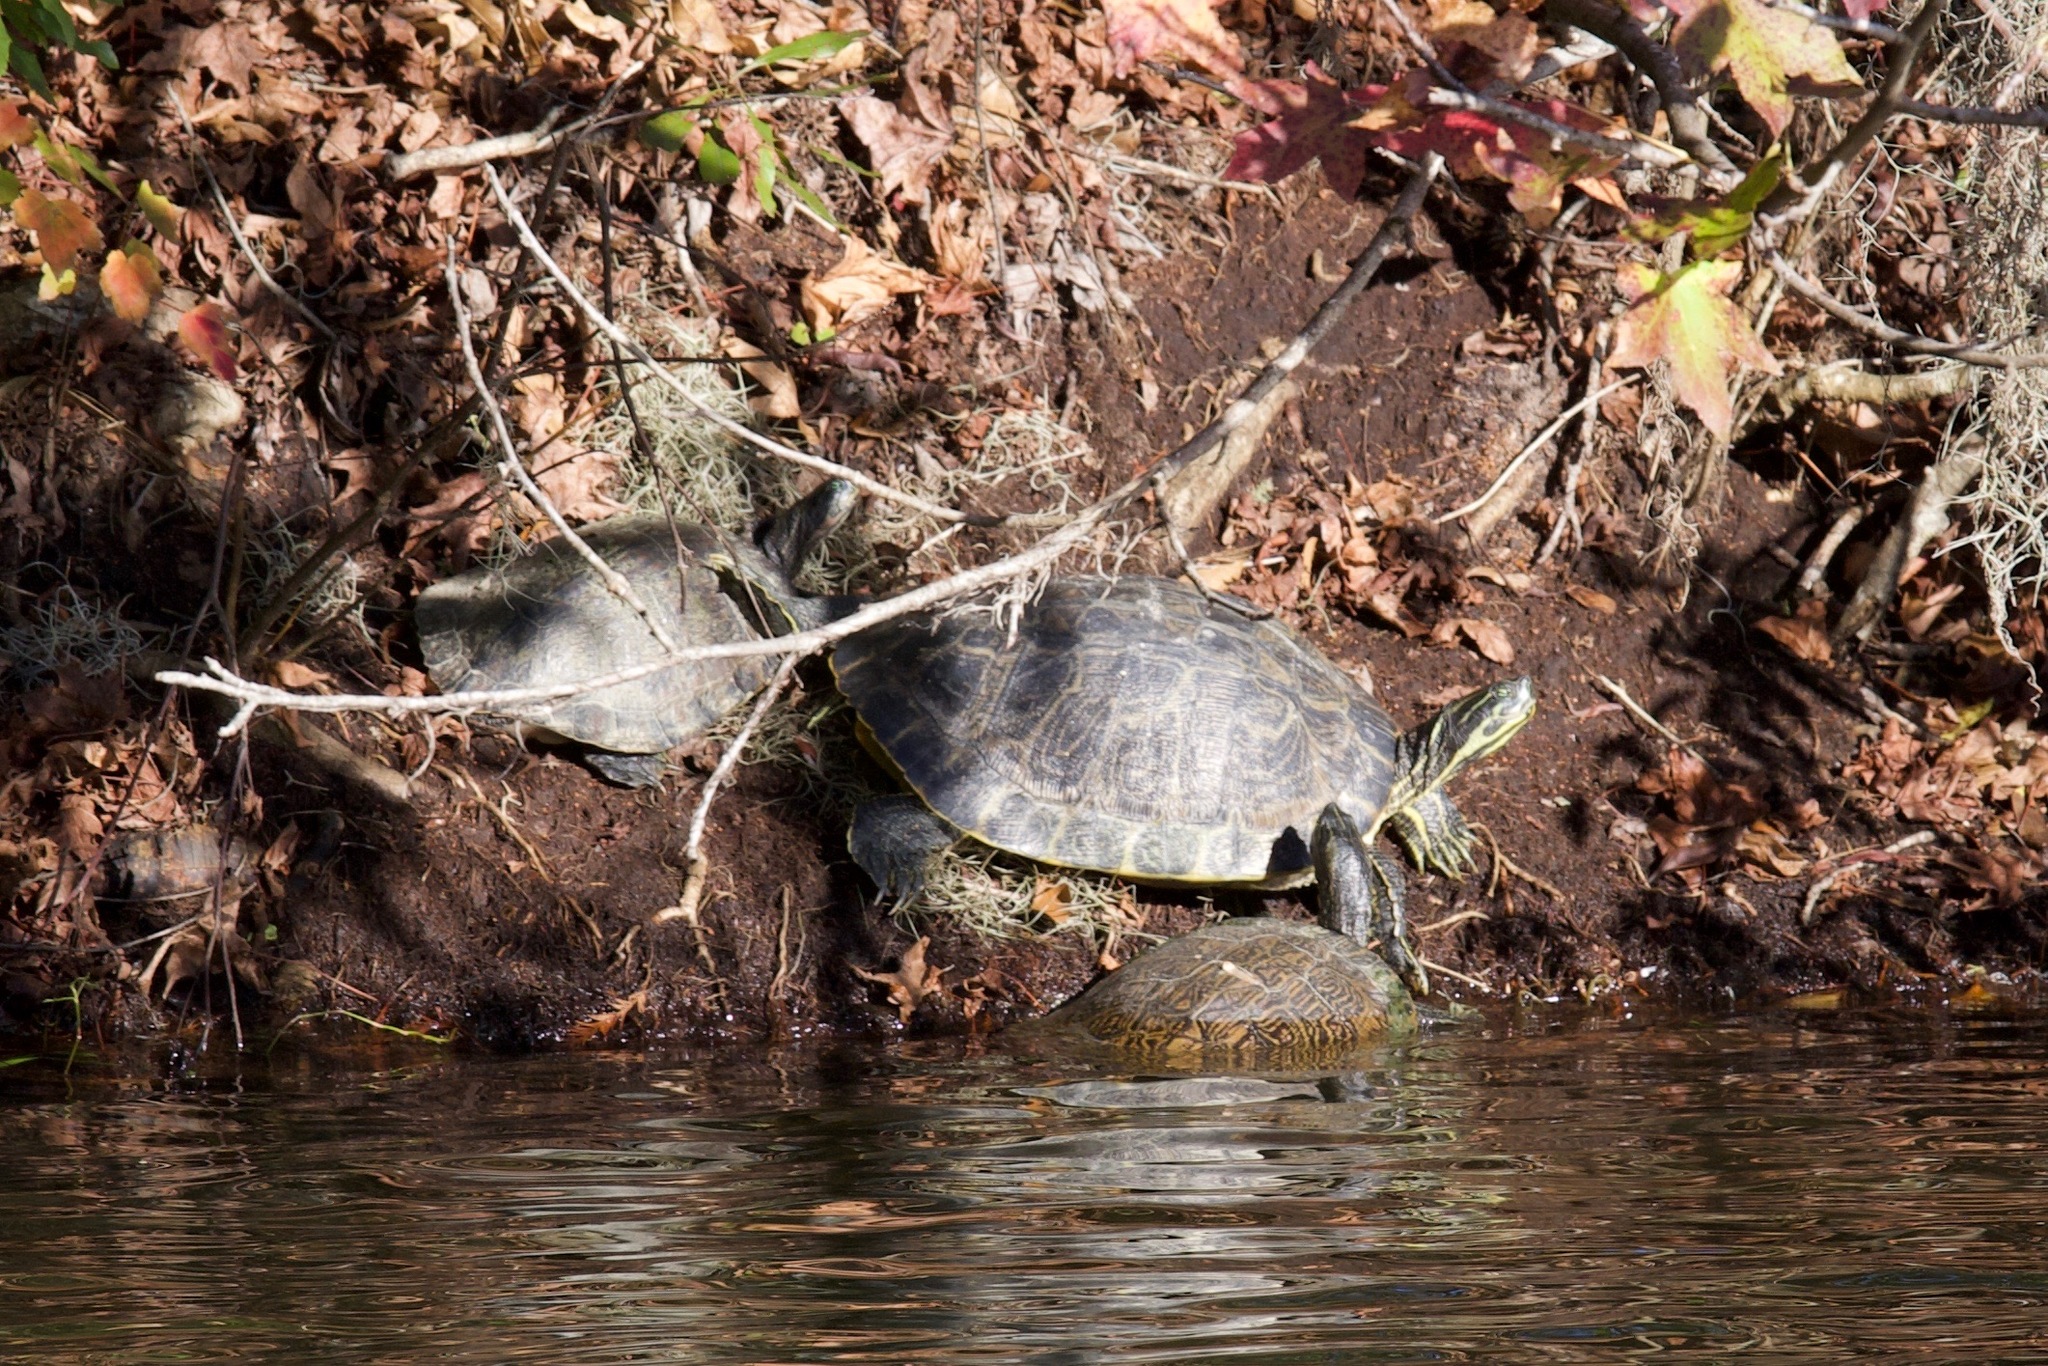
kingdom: Animalia
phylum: Chordata
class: Testudines
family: Emydidae
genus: Pseudemys
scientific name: Pseudemys concinna
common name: Eastern river cooter
